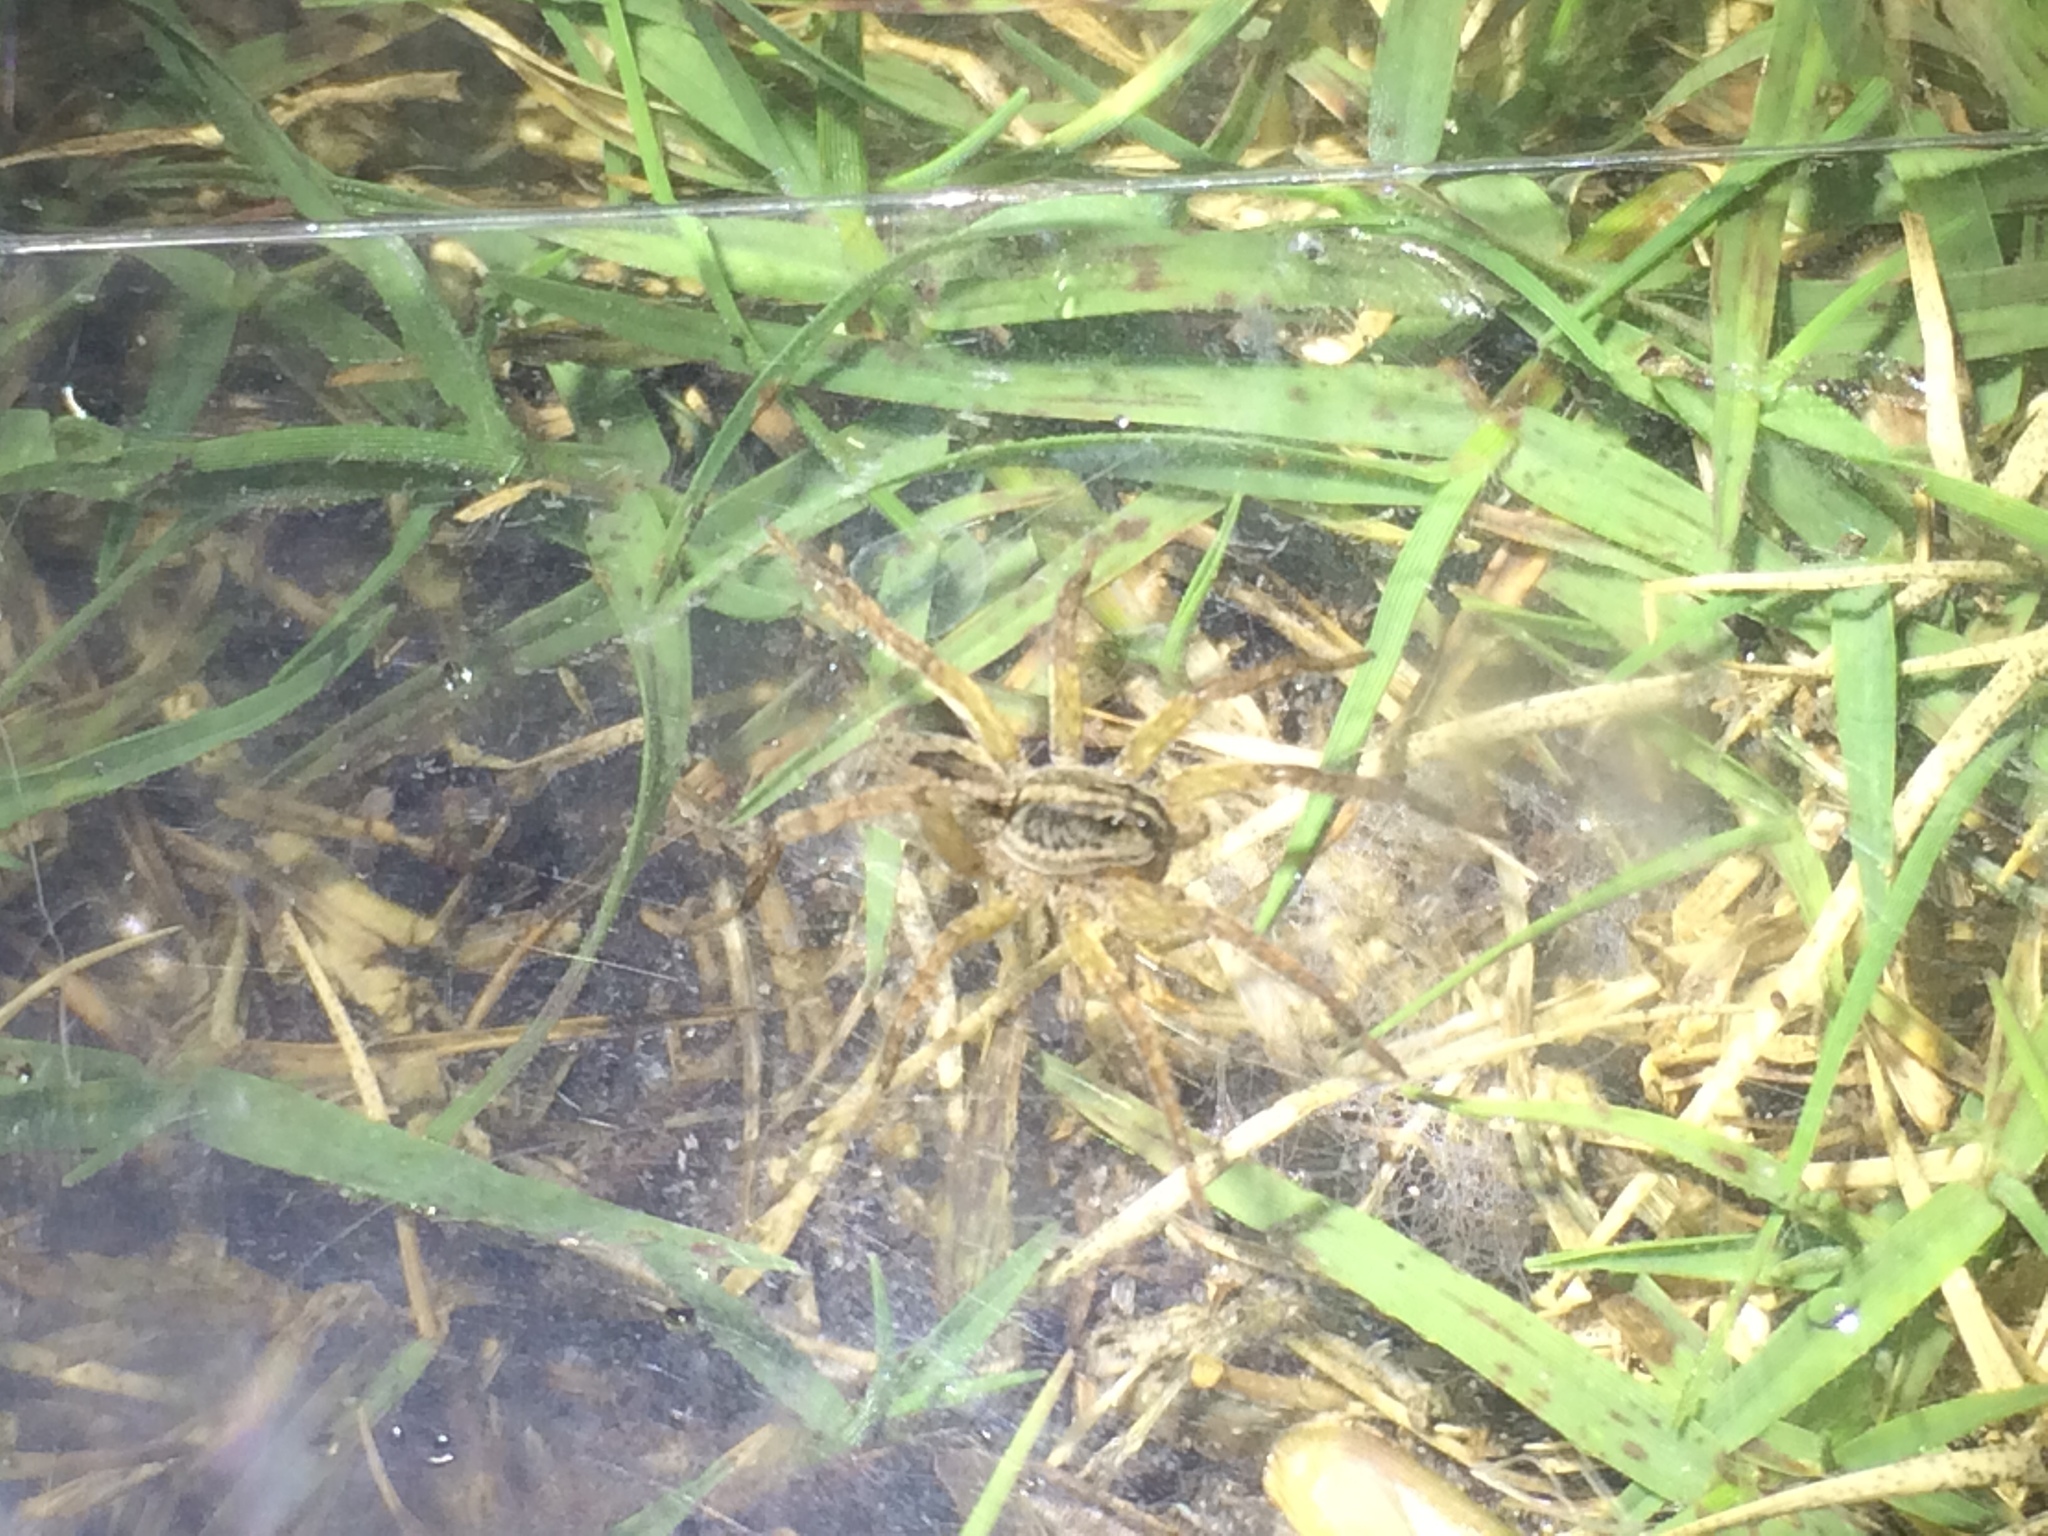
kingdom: Animalia
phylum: Arthropoda
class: Arachnida
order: Araneae
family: Lycosidae
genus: Tigrosa
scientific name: Tigrosa annexa
